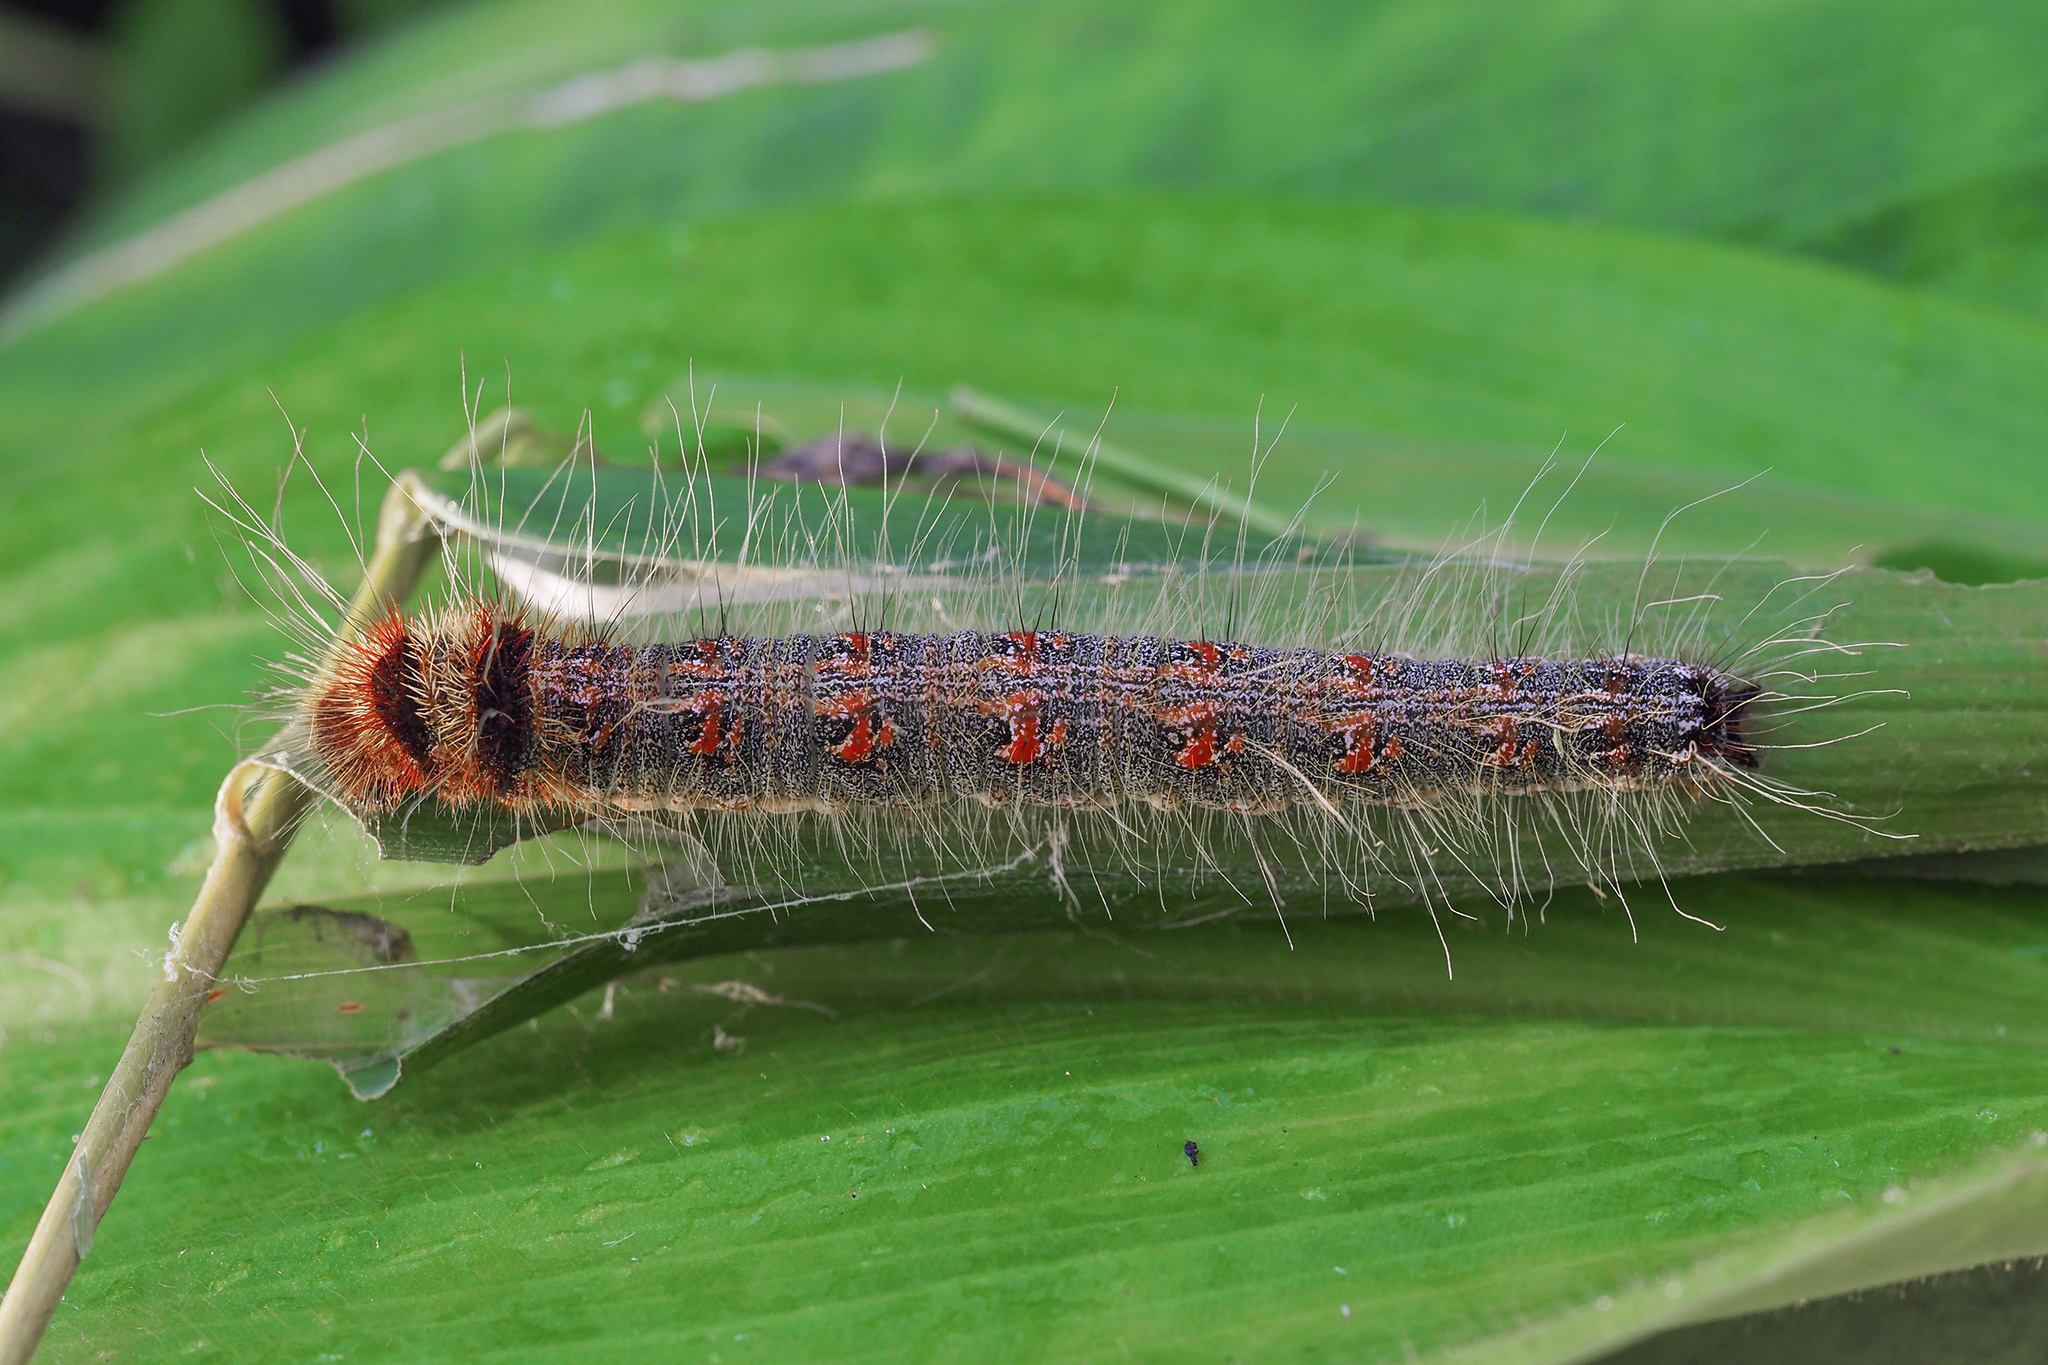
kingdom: Animalia
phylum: Arthropoda
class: Insecta
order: Lepidoptera
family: Nymphalidae
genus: Discophora
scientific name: Discophora sondaica
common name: Common duffer
